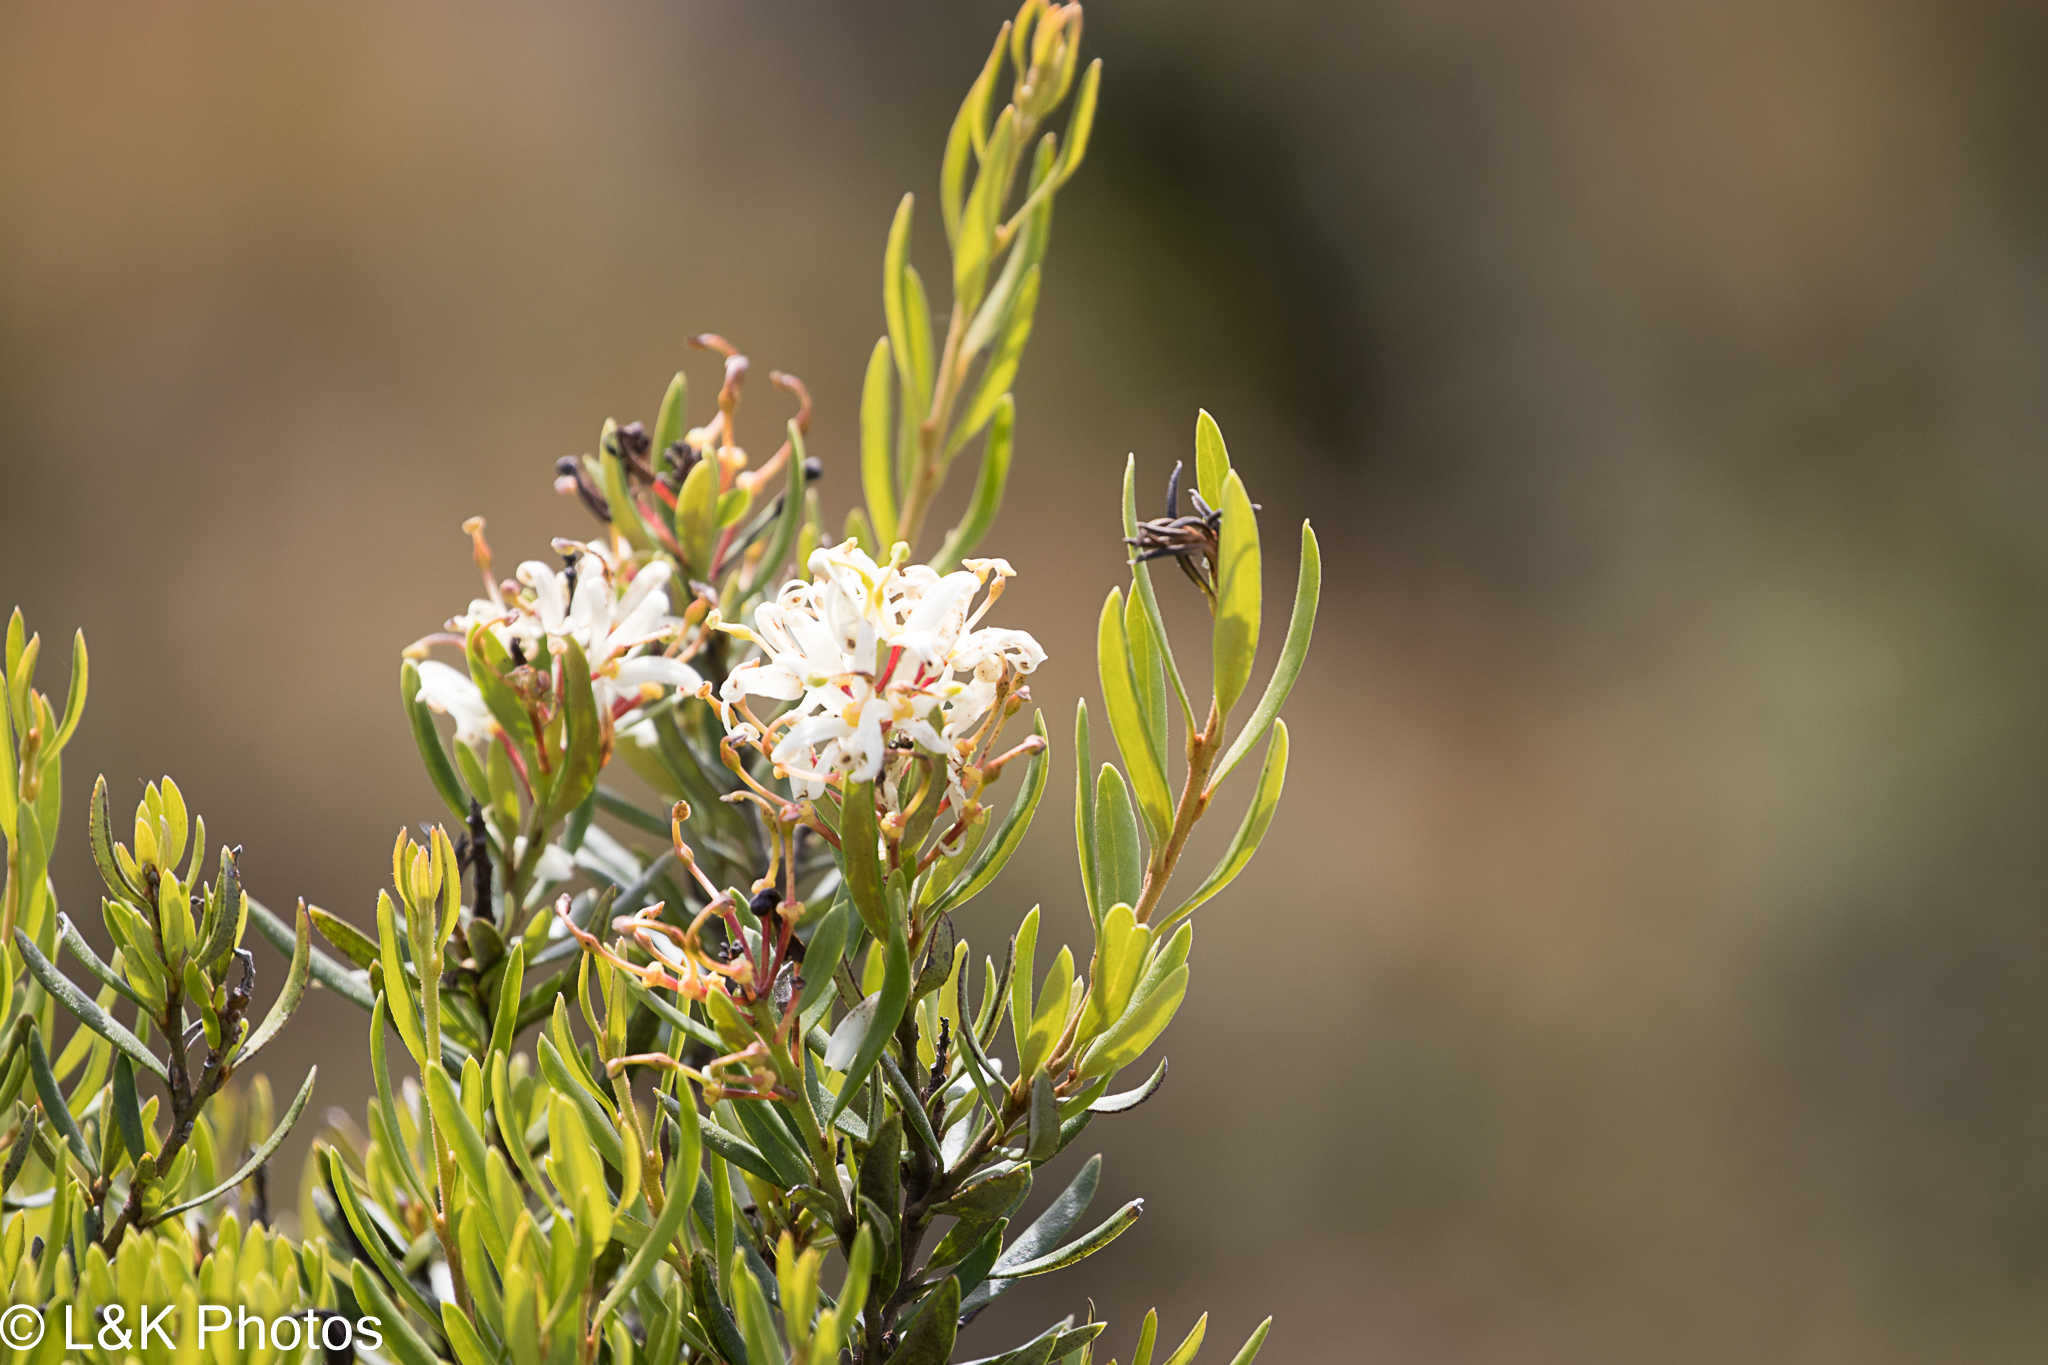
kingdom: Plantae
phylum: Tracheophyta
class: Magnoliopsida
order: Proteales
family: Proteaceae
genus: Lomatia
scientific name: Lomatia polymorpha
